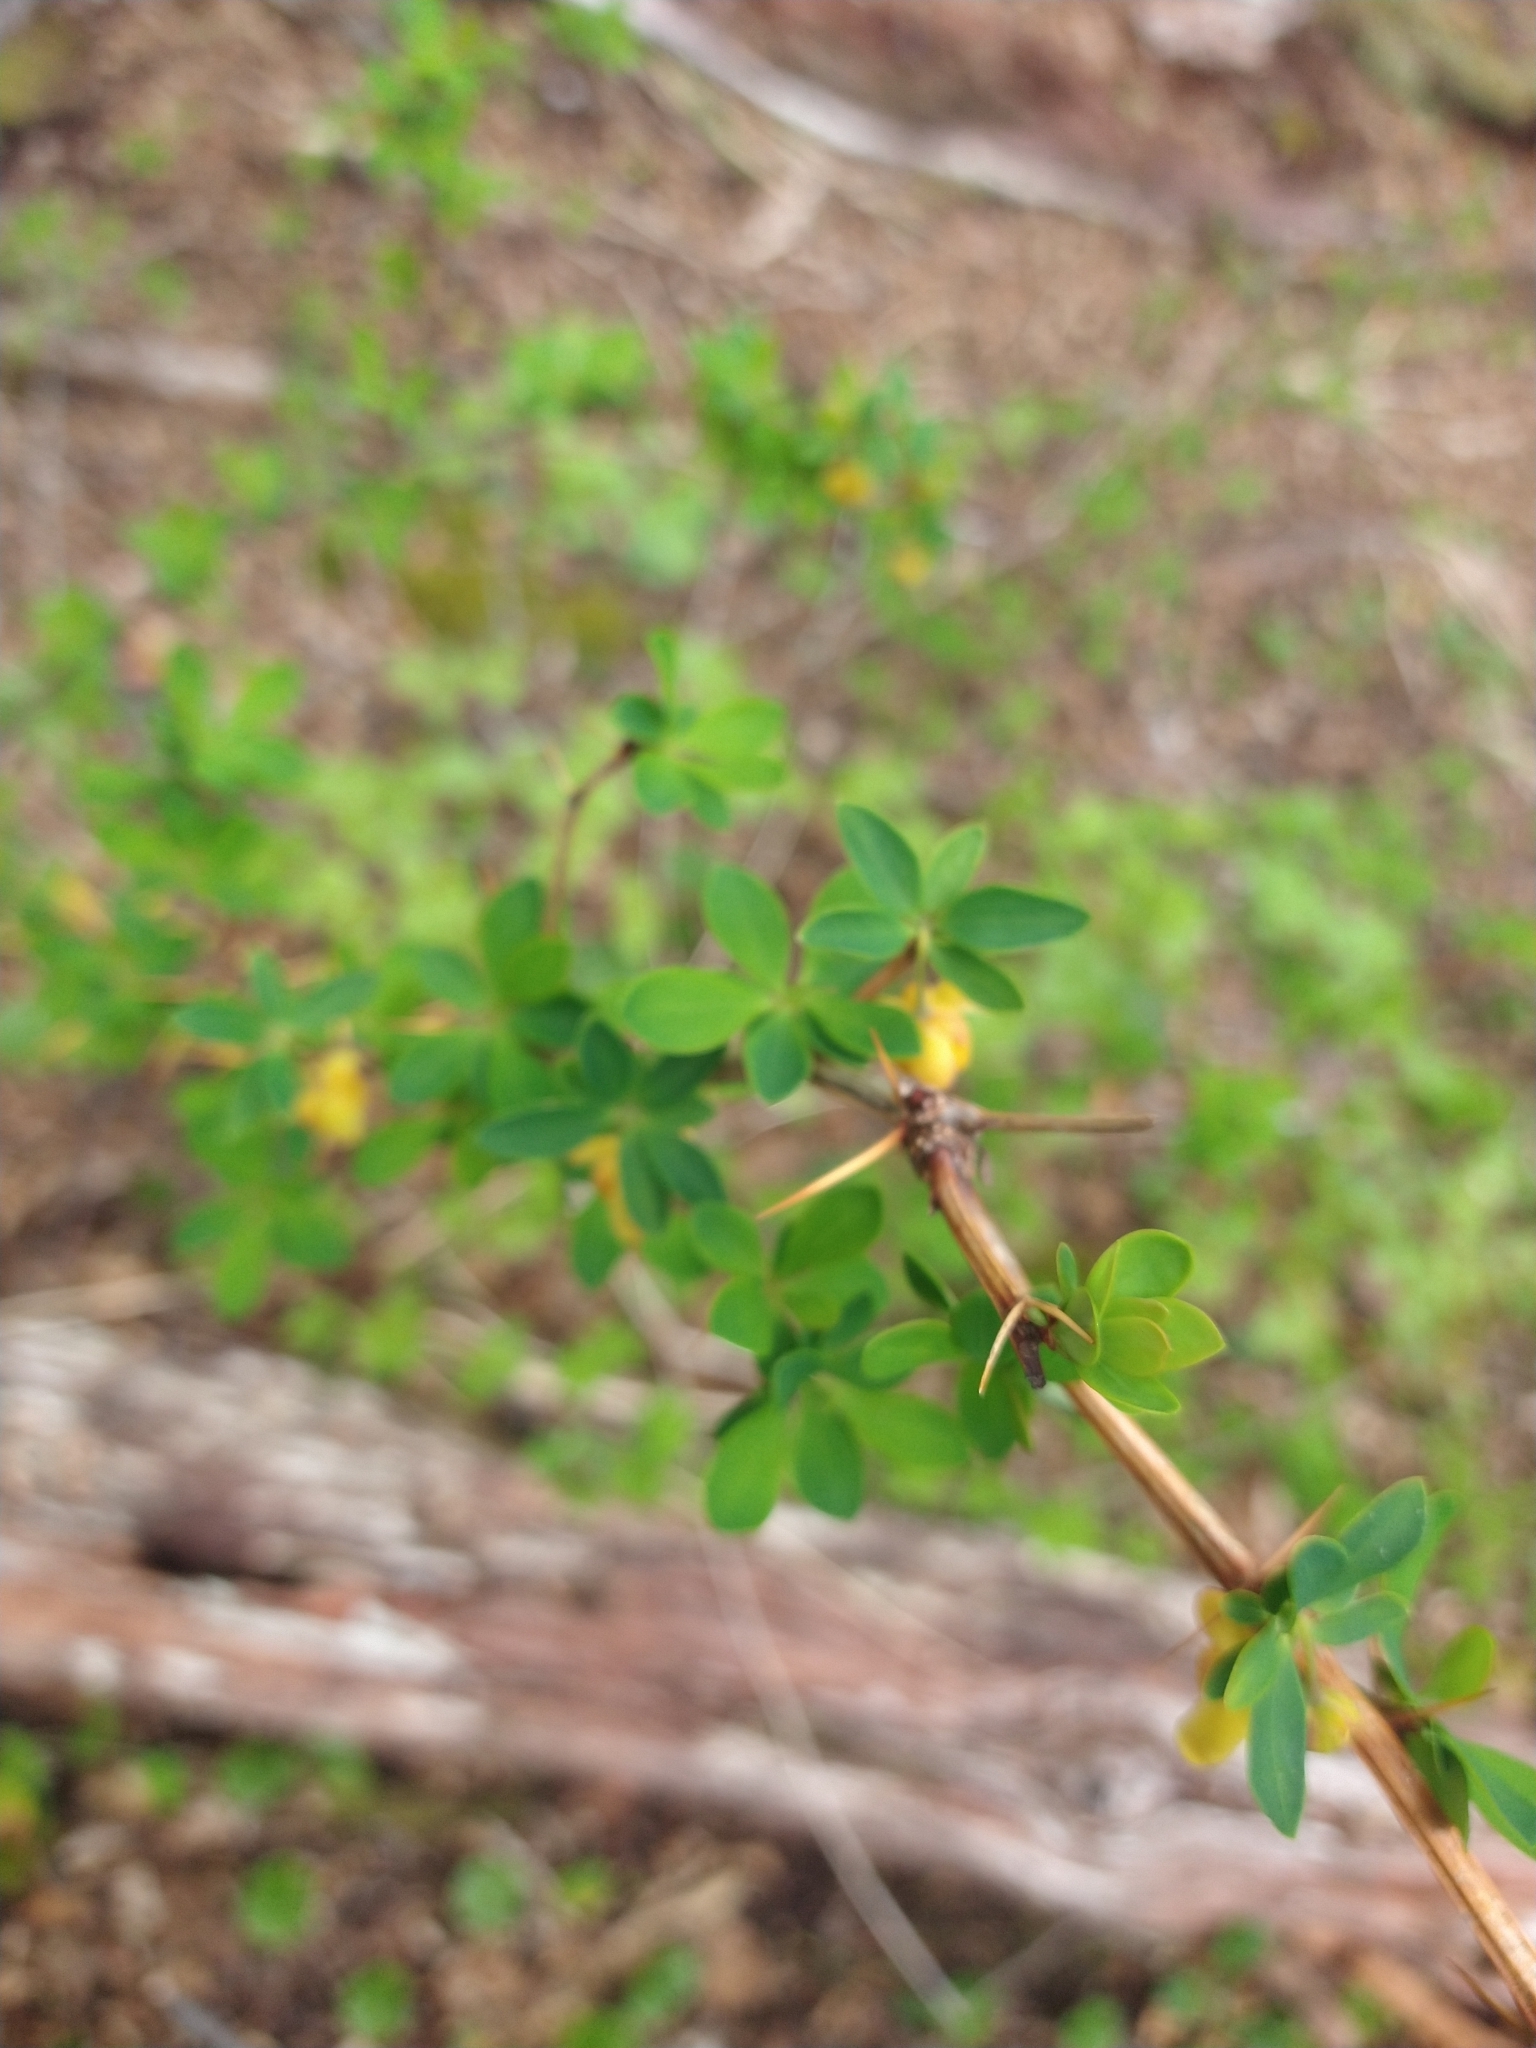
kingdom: Plantae
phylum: Tracheophyta
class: Magnoliopsida
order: Ranunculales
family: Berberidaceae
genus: Berberis
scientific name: Berberis microphylla
